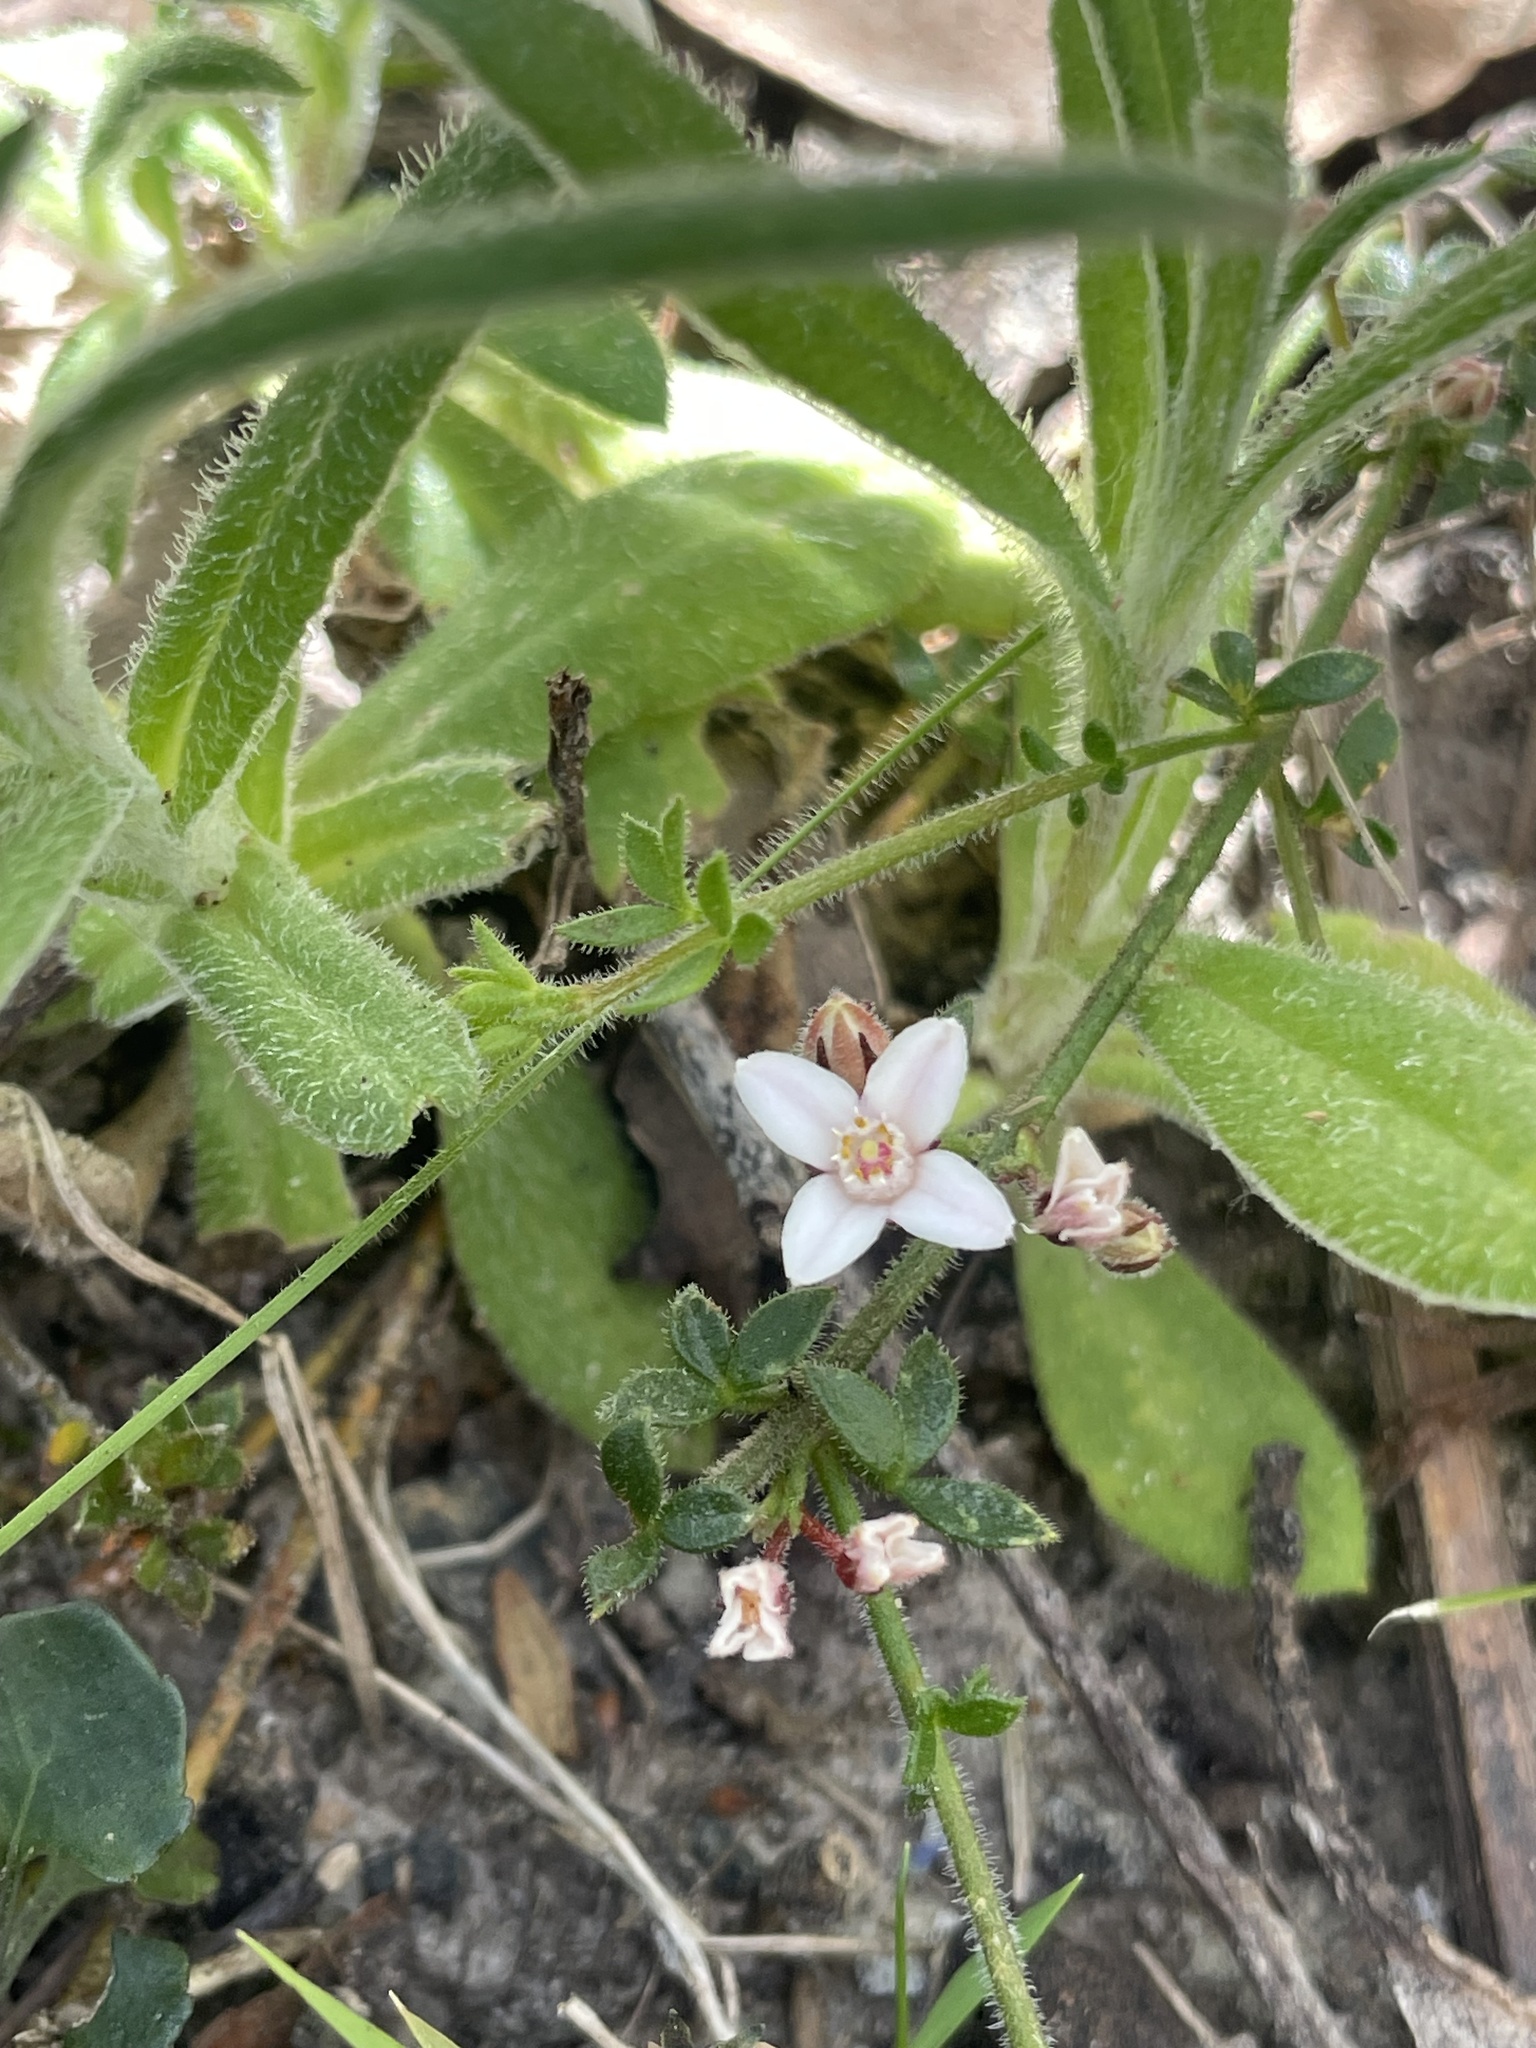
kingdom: Plantae
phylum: Tracheophyta
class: Magnoliopsida
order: Sapindales
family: Rutaceae
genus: Cyanothamnus
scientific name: Cyanothamnus nanus
